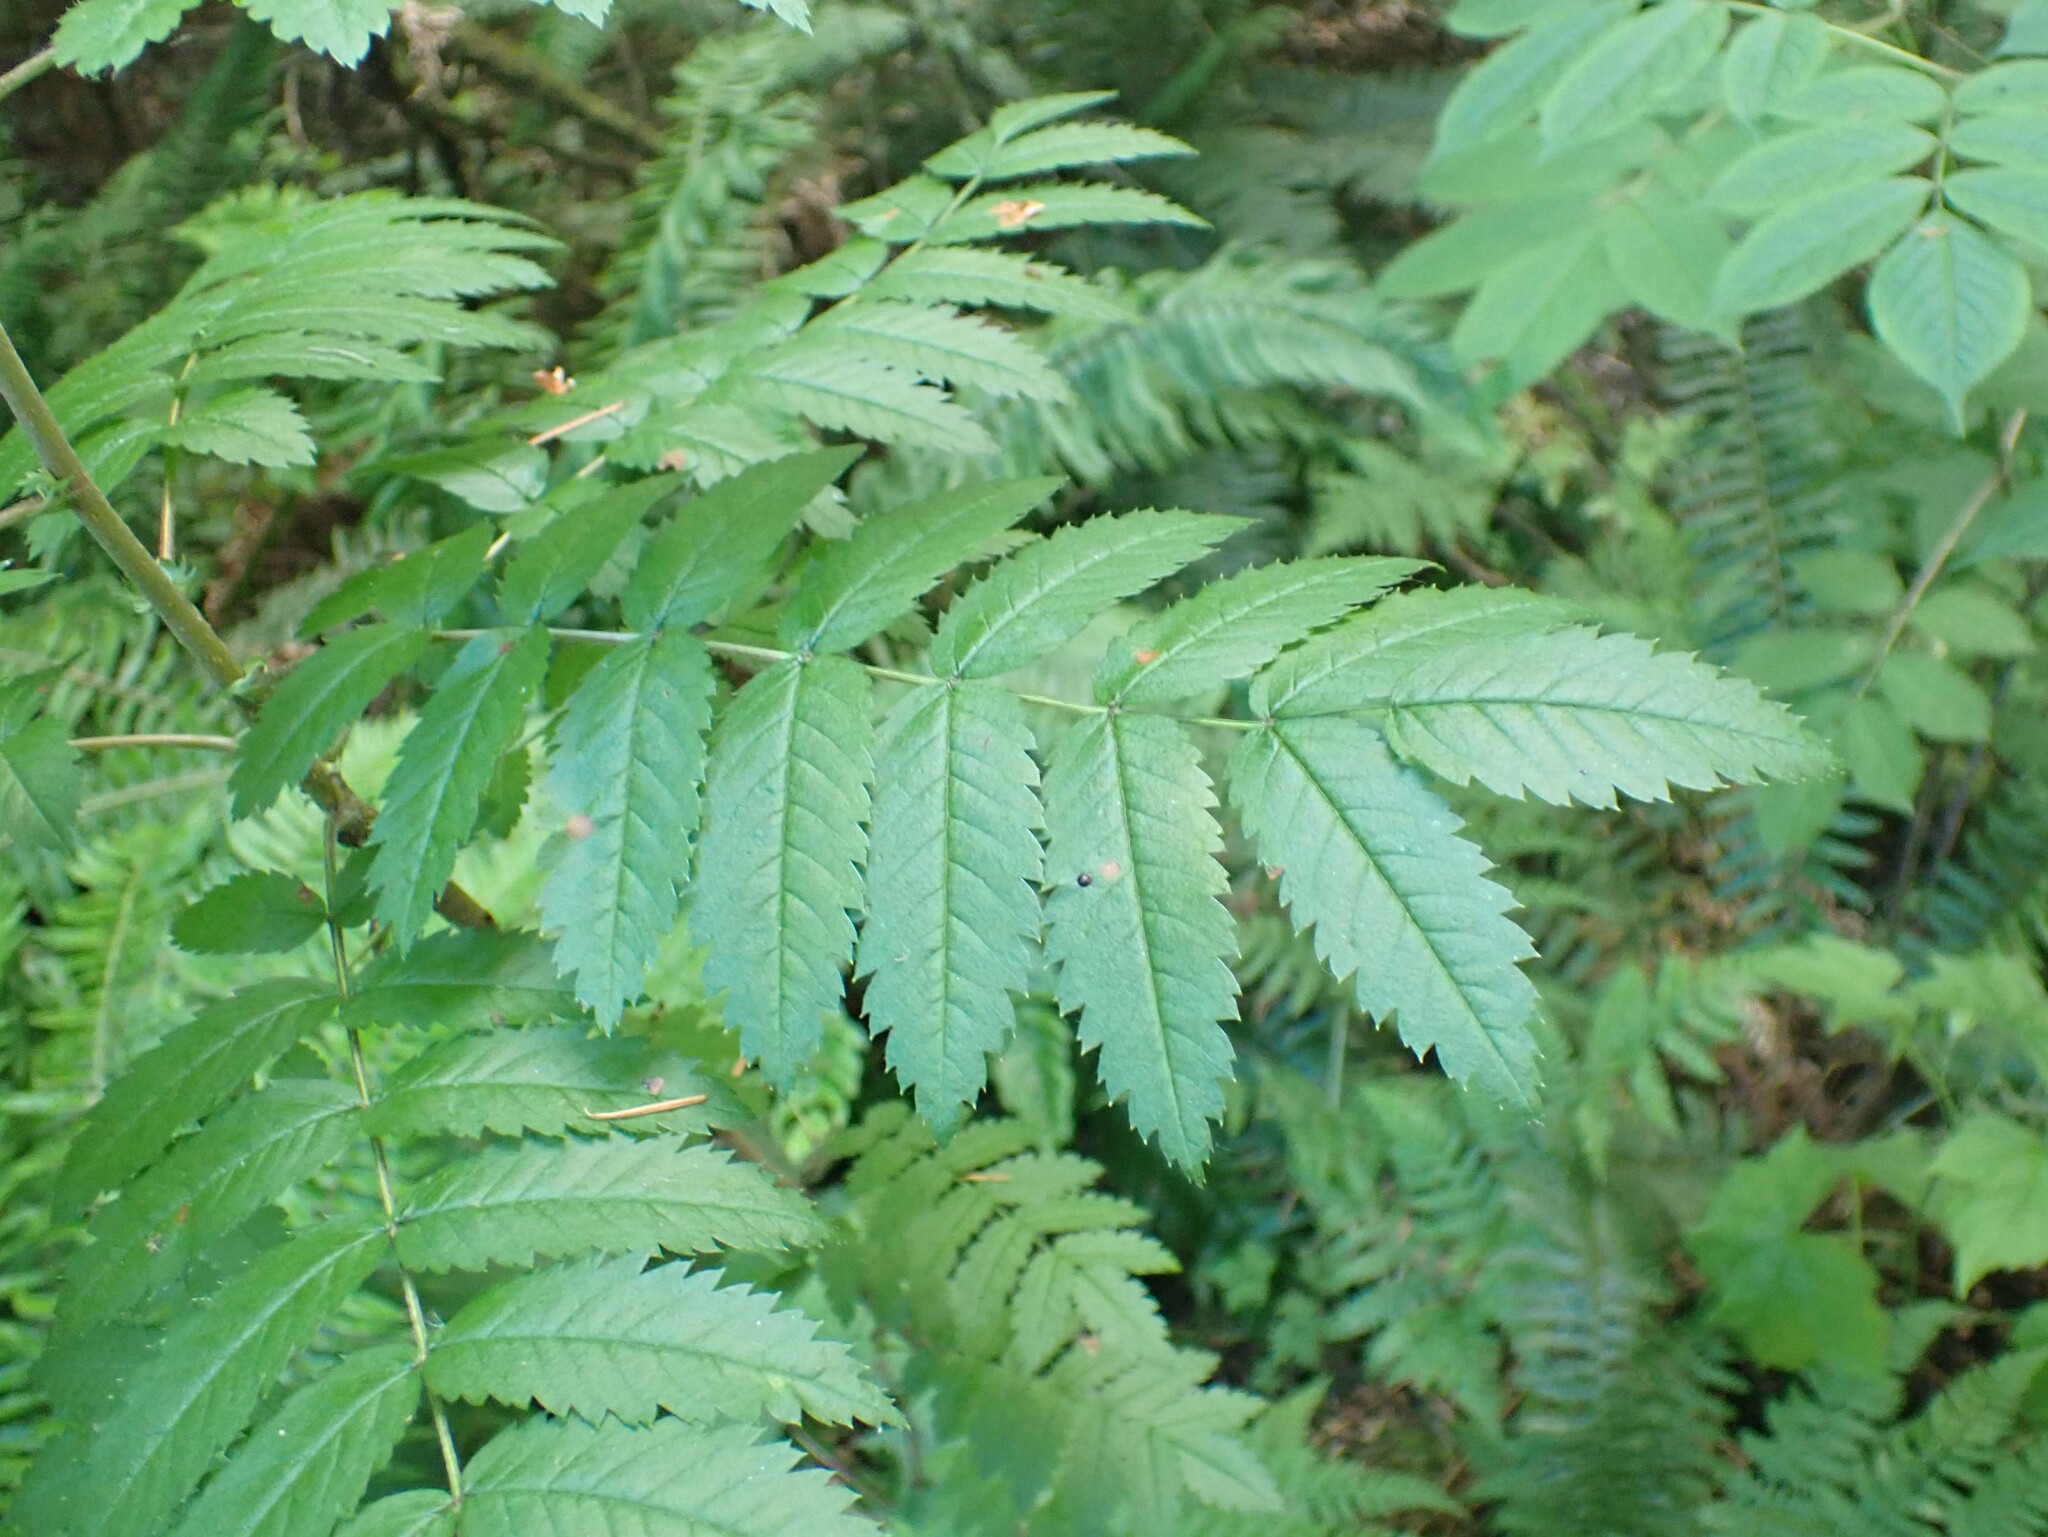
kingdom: Plantae
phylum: Tracheophyta
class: Magnoliopsida
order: Rosales
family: Rosaceae
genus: Sorbus
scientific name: Sorbus aucuparia
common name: Rowan
